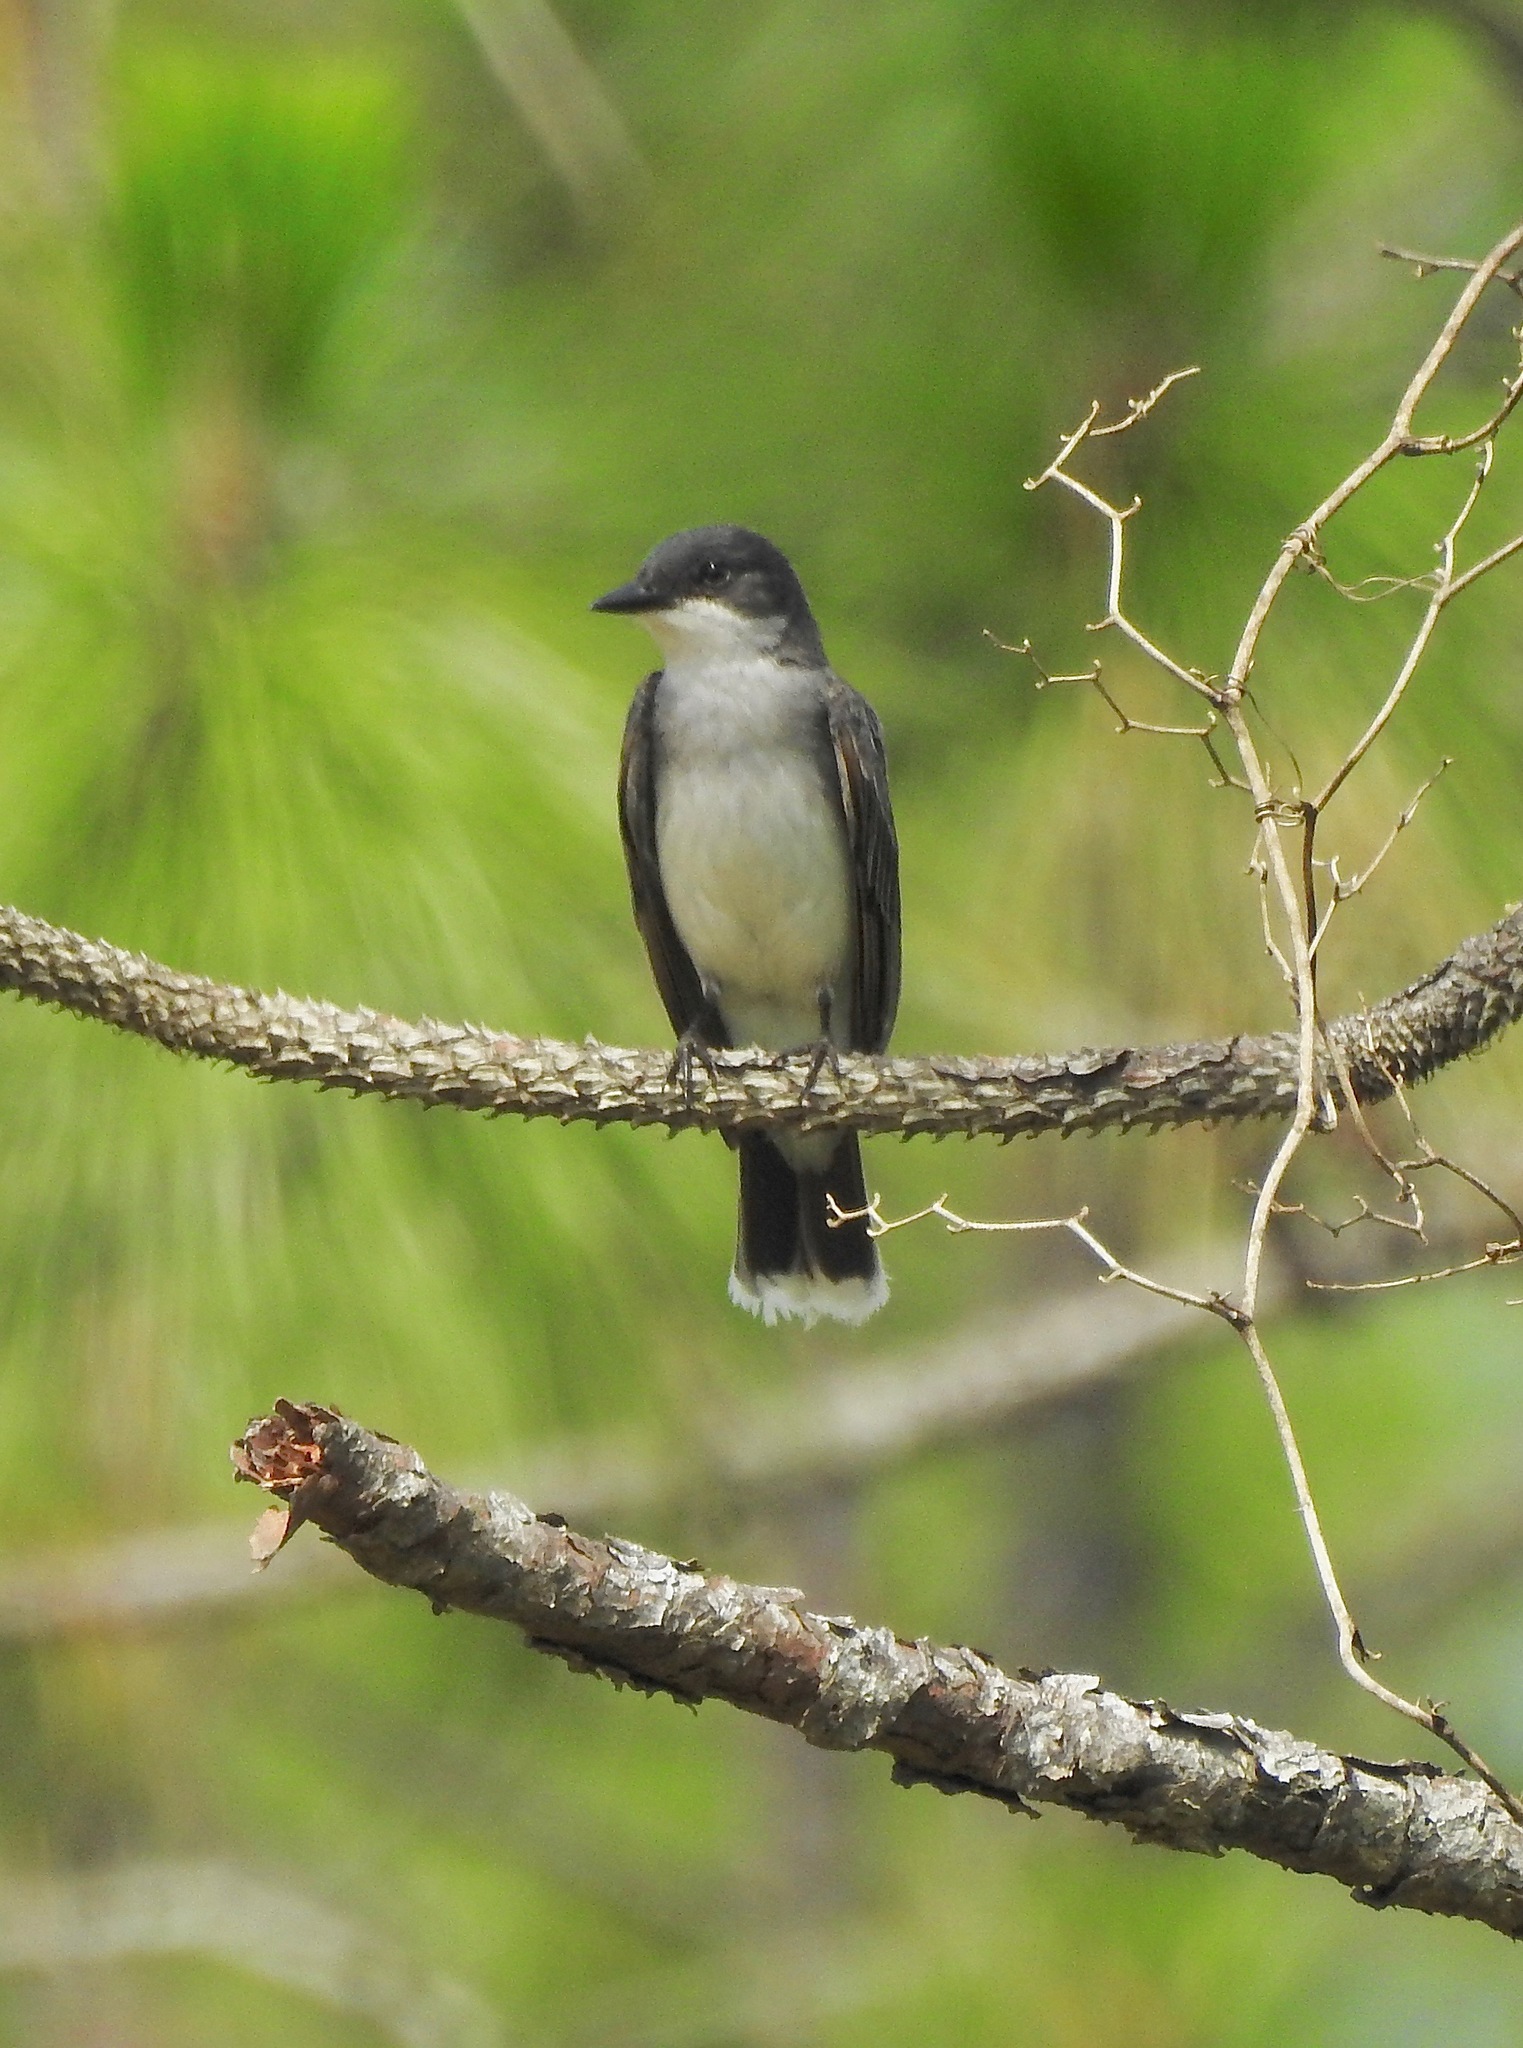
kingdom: Animalia
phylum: Chordata
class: Aves
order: Passeriformes
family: Tyrannidae
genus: Tyrannus
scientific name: Tyrannus tyrannus
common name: Eastern kingbird
